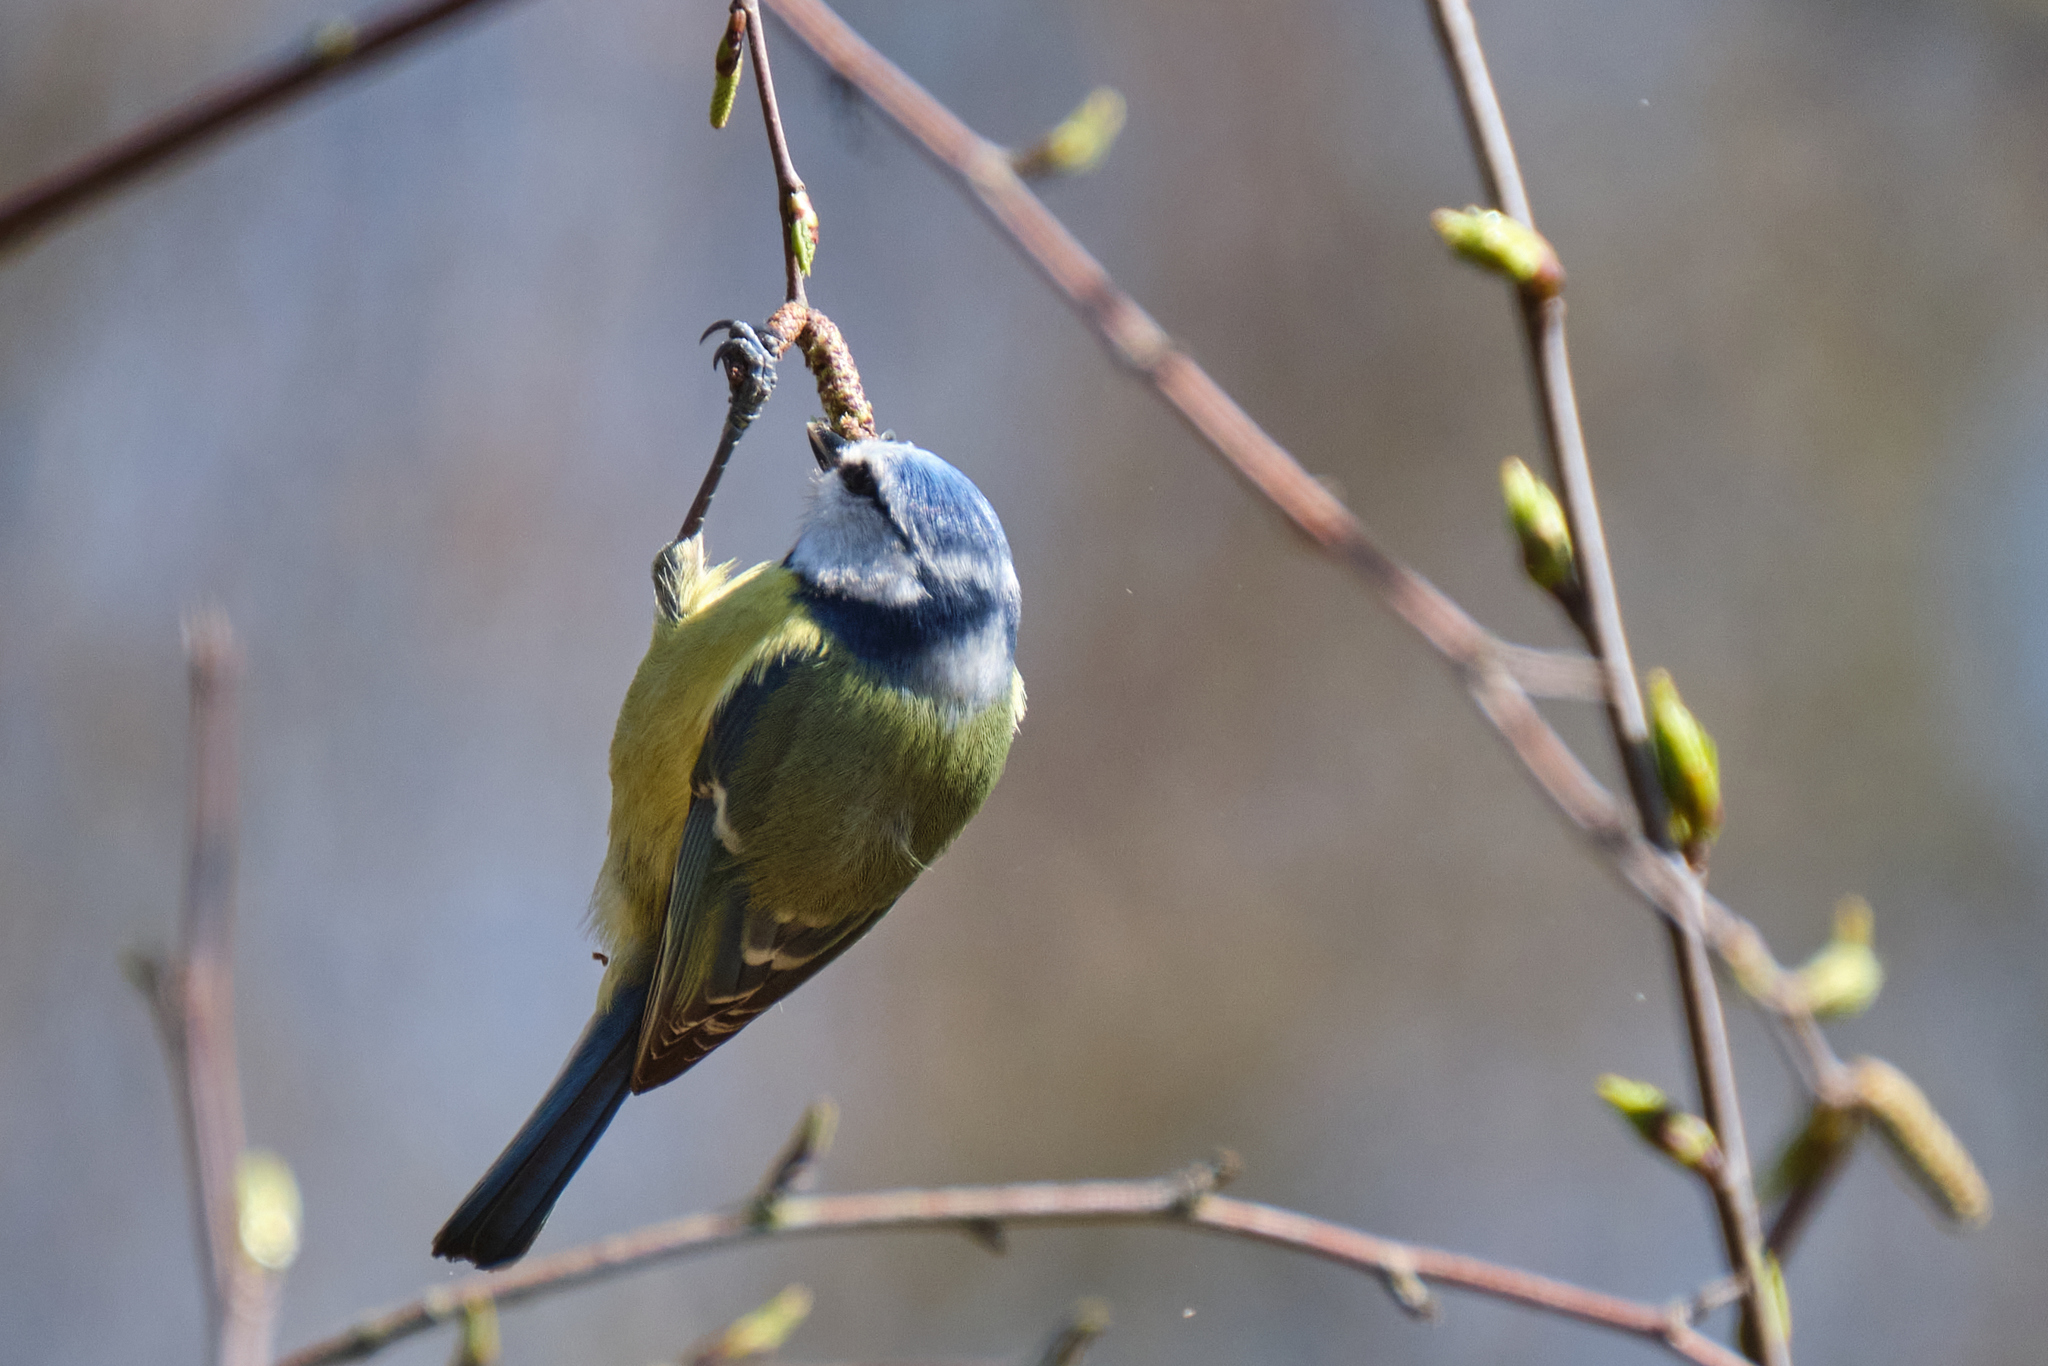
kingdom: Animalia
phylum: Chordata
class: Aves
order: Passeriformes
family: Paridae
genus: Cyanistes
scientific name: Cyanistes caeruleus
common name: Eurasian blue tit
